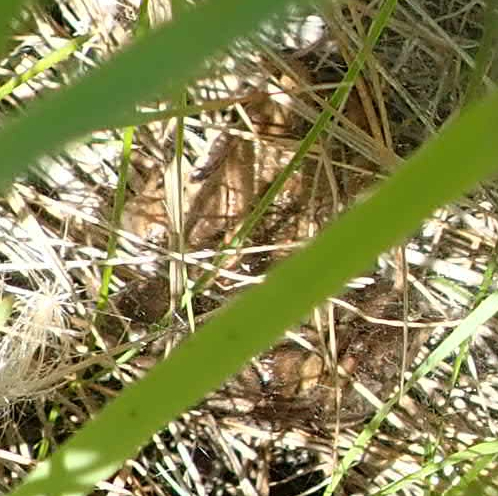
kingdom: Animalia
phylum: Chordata
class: Amphibia
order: Anura
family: Ranidae
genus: Lithobates
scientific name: Lithobates sylvaticus
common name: Wood frog
